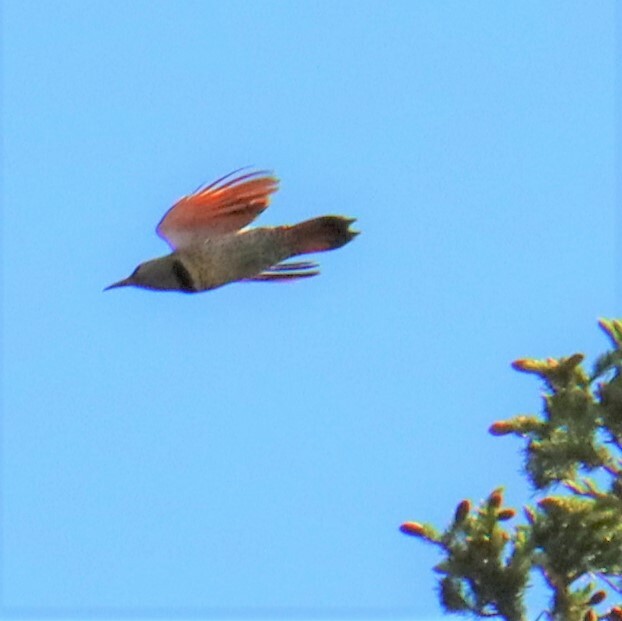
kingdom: Animalia
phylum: Chordata
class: Aves
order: Piciformes
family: Picidae
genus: Colaptes
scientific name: Colaptes auratus
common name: Northern flicker
